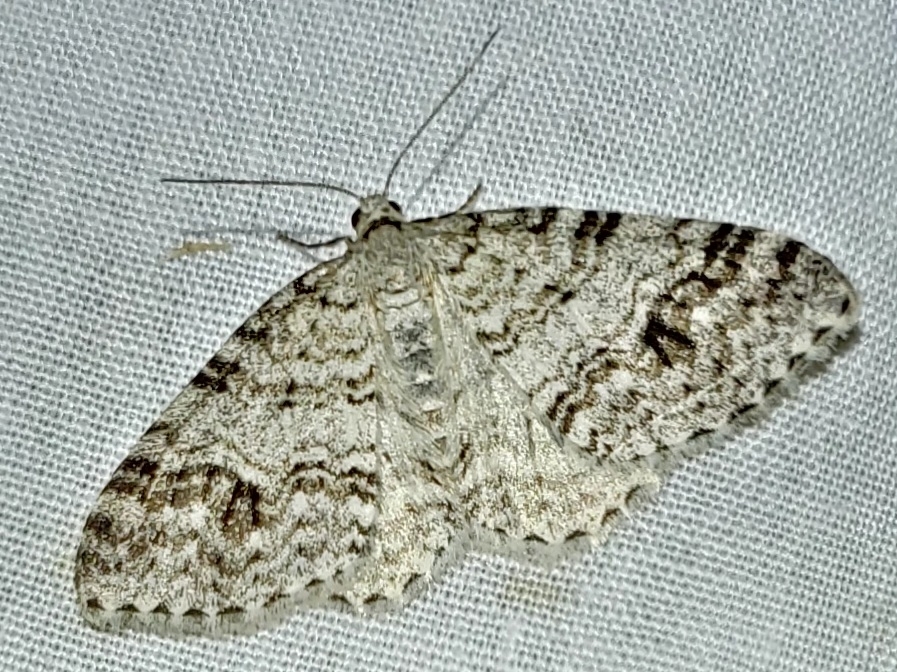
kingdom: Animalia
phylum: Arthropoda
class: Insecta
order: Lepidoptera
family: Geometridae
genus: Venusia
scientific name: Venusia cambrica
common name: Welsh wave
